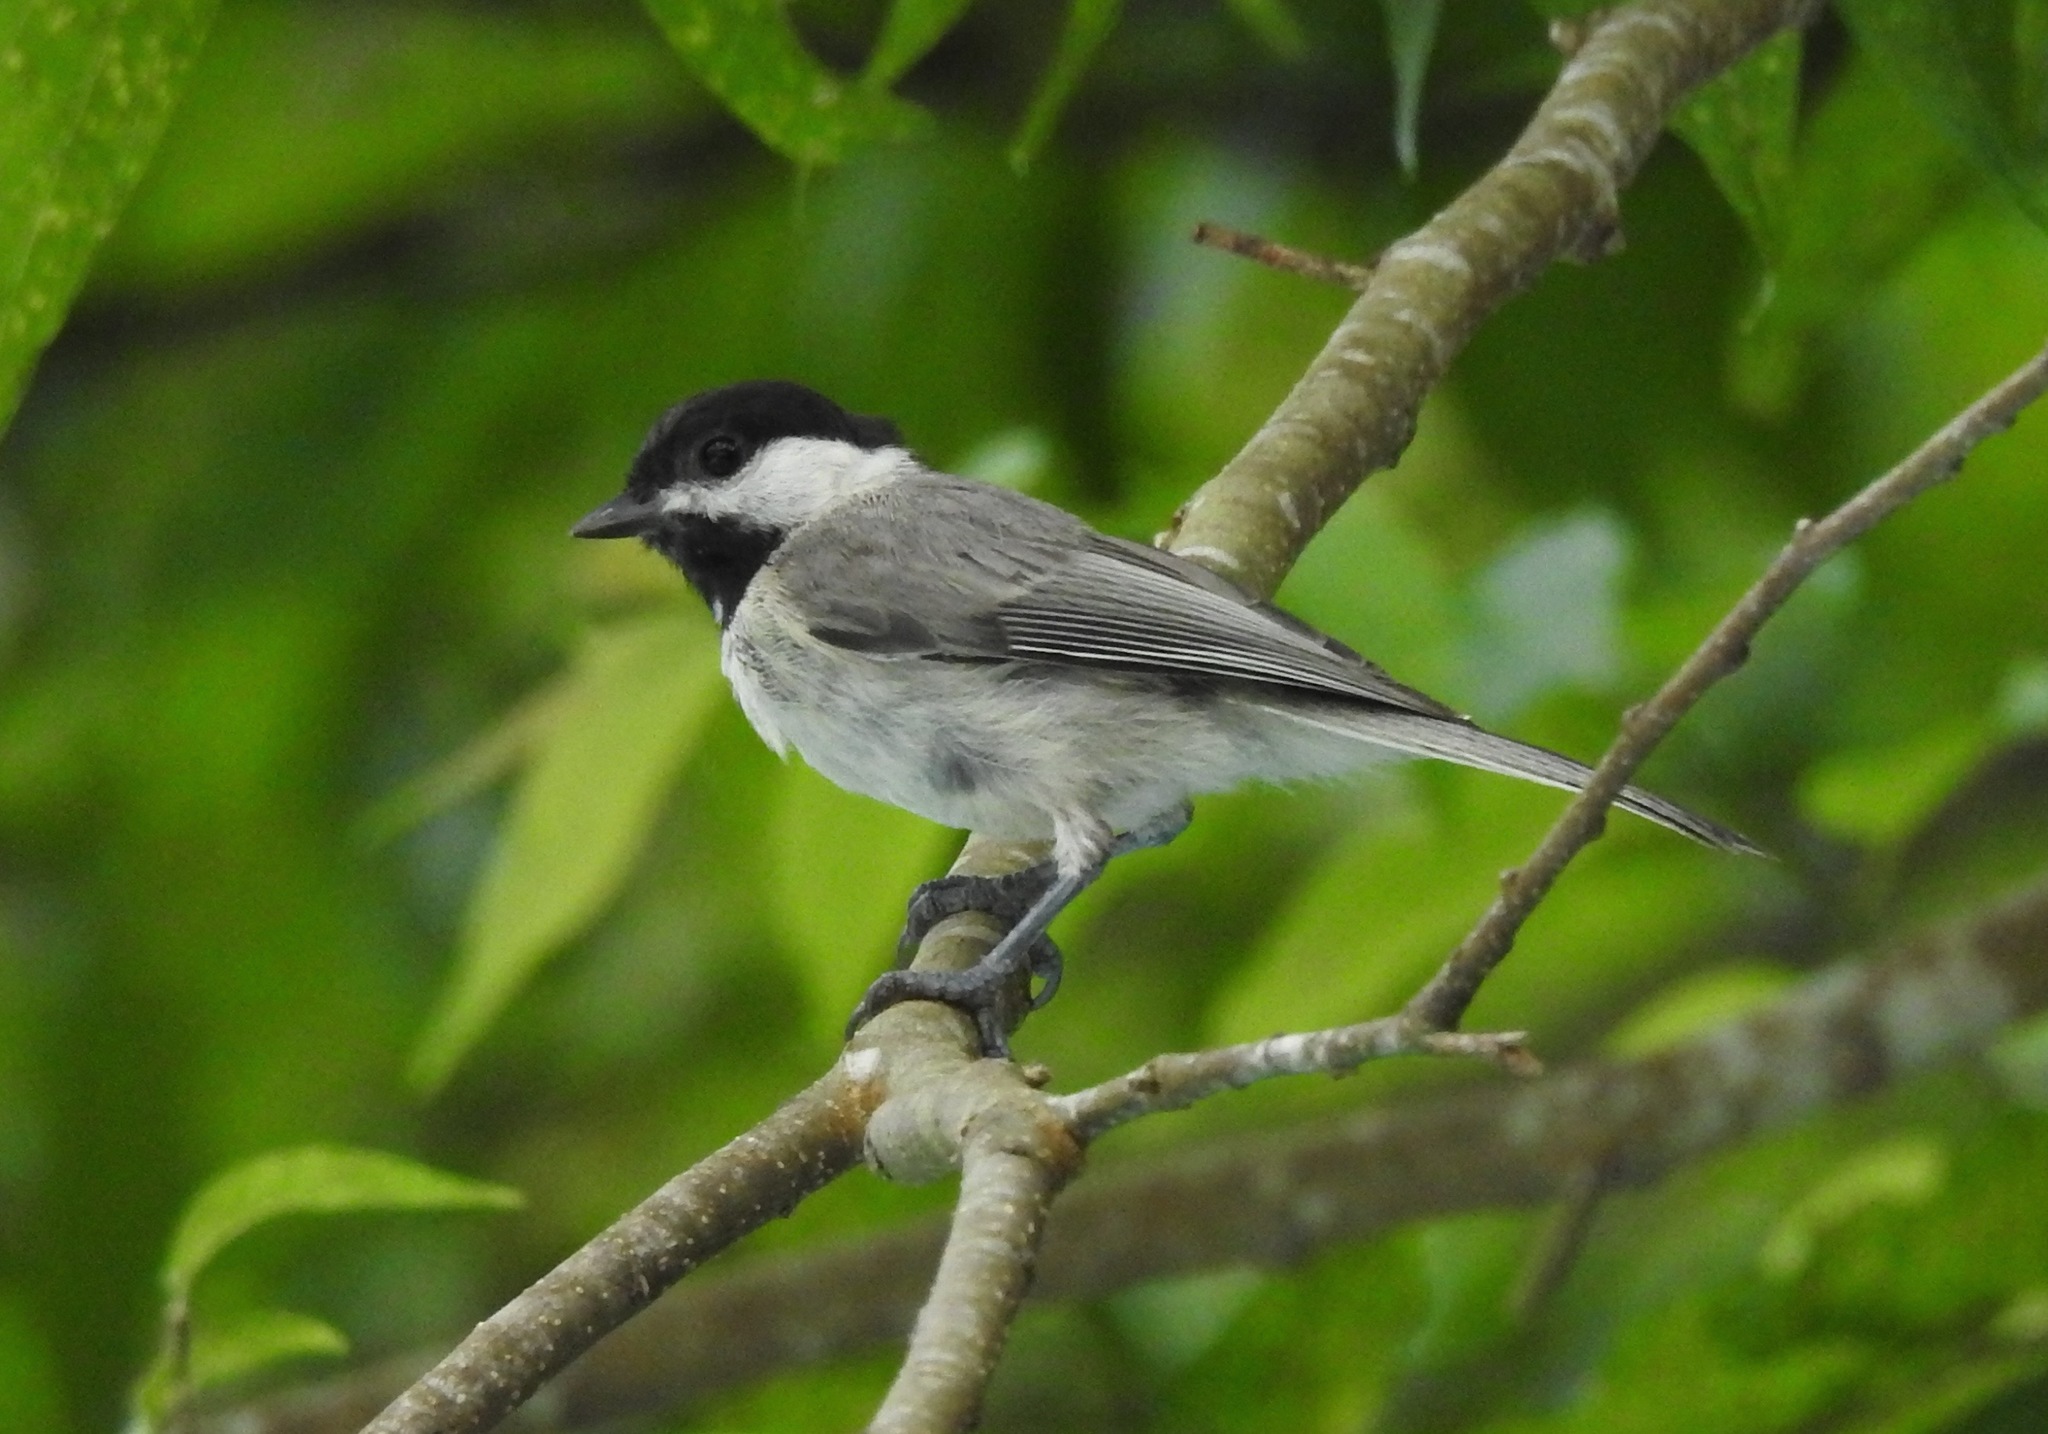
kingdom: Animalia
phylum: Chordata
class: Aves
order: Passeriformes
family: Paridae
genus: Poecile
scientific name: Poecile carolinensis
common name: Carolina chickadee
